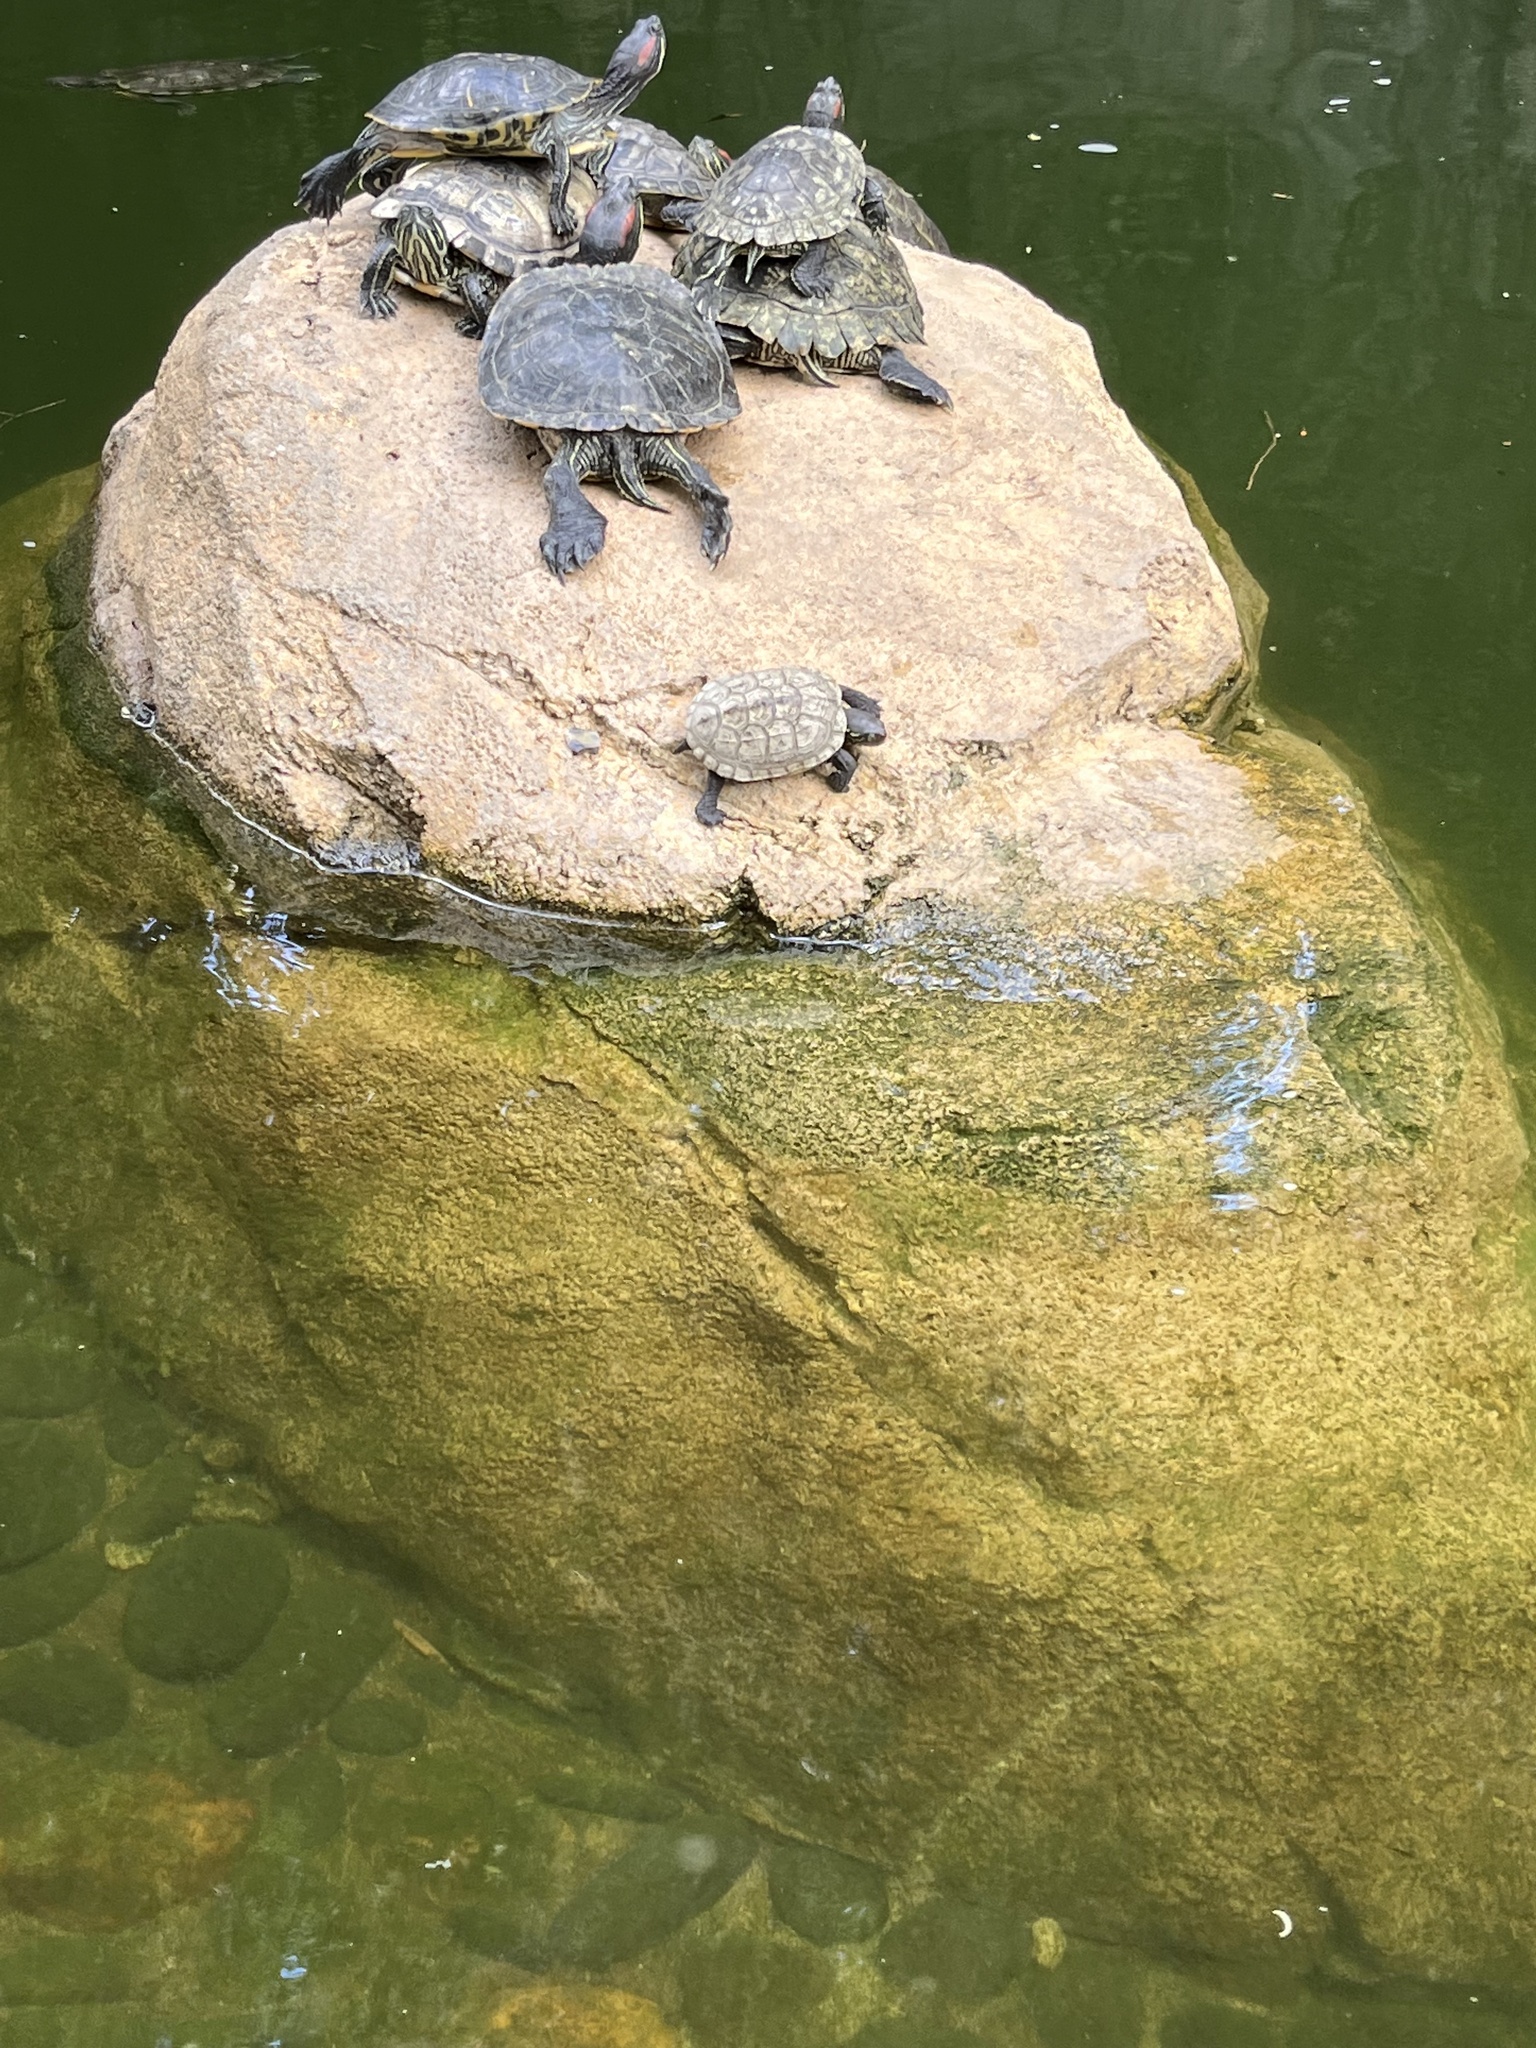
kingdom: Animalia
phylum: Chordata
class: Testudines
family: Geoemydidae
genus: Mauremys
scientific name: Mauremys sinensis
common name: Chinese stripe-necked turtle
